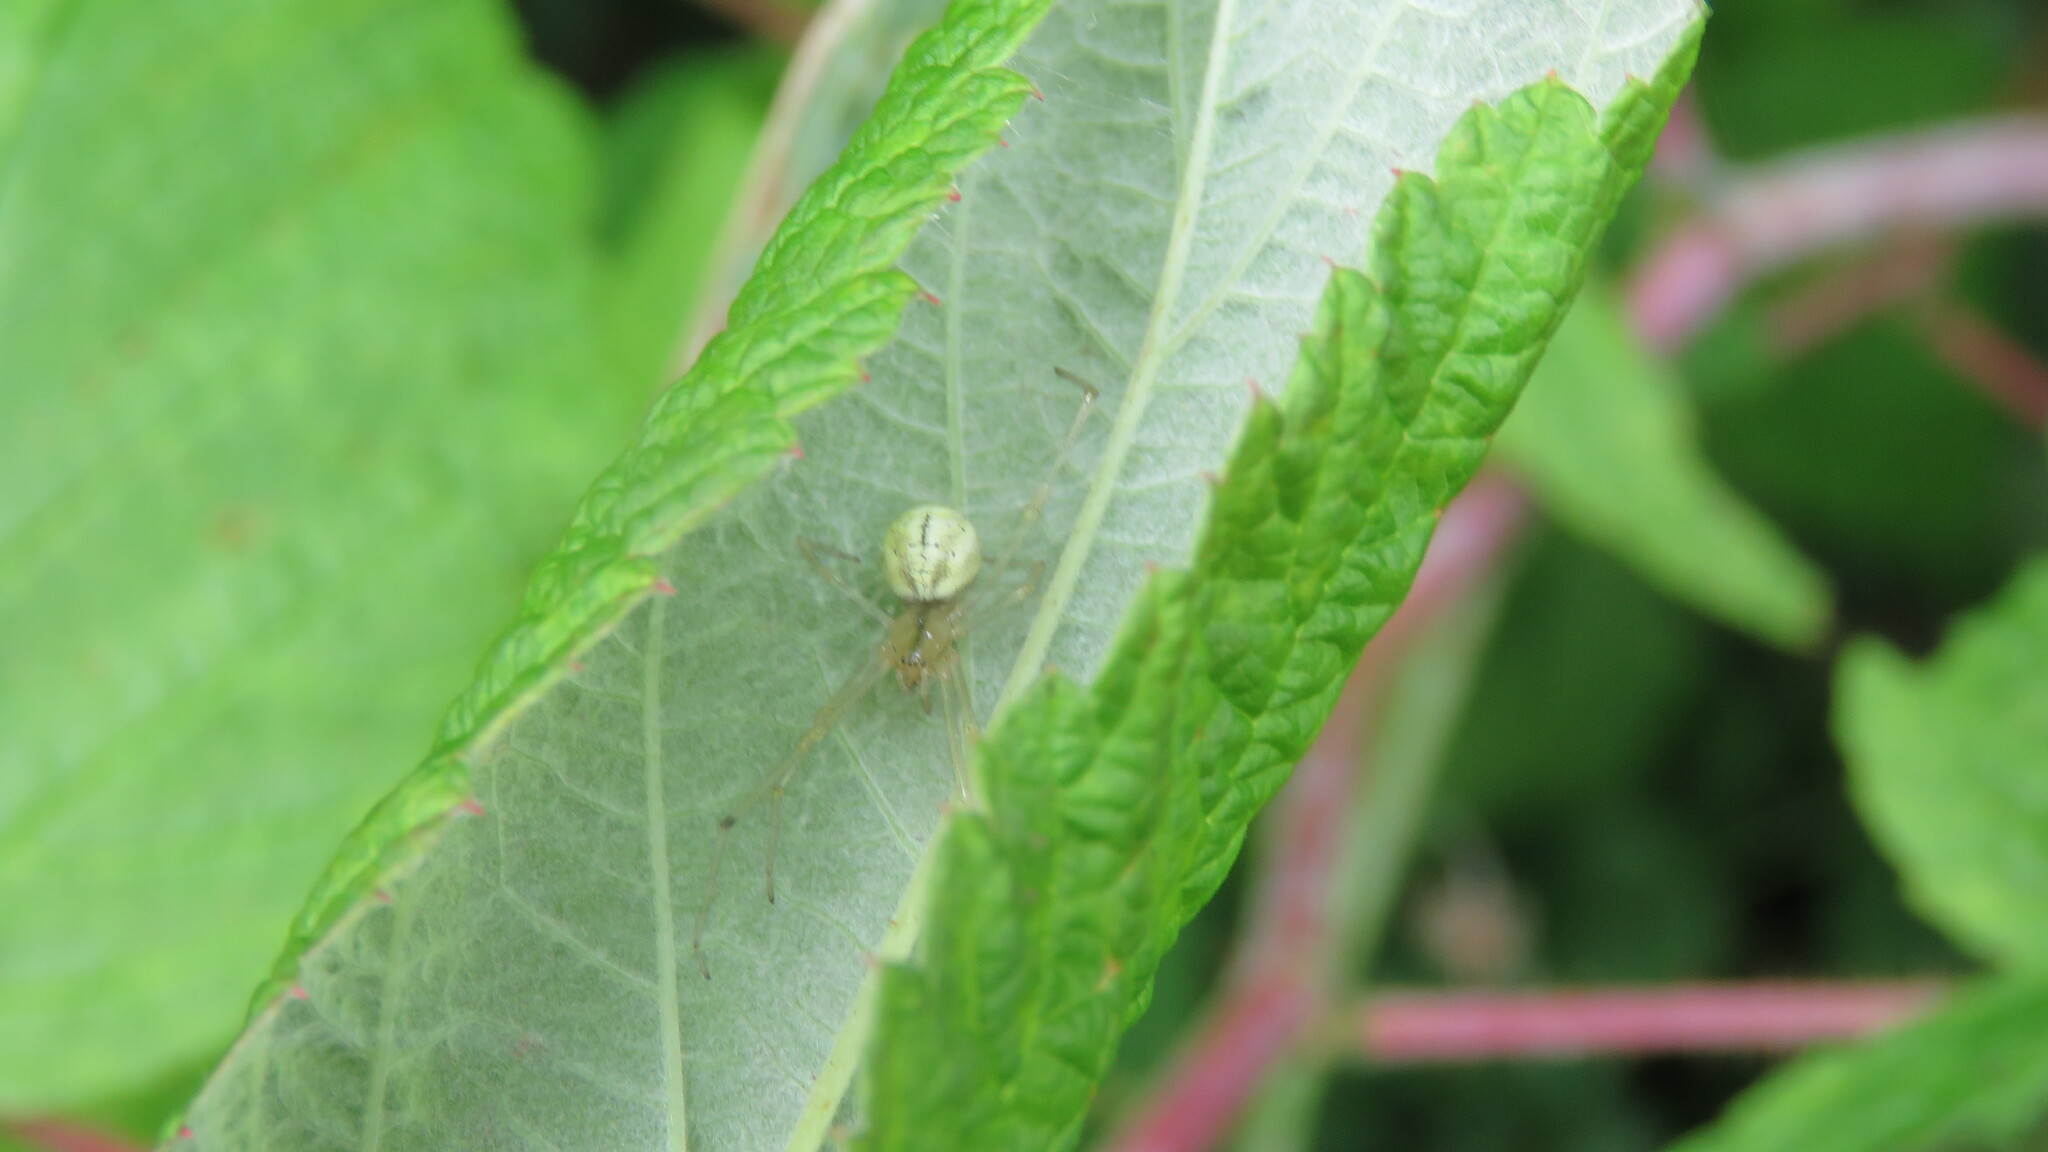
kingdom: Animalia
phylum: Arthropoda
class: Arachnida
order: Araneae
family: Theridiidae
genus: Enoplognatha
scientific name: Enoplognatha ovata
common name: Common candy-striped spider
